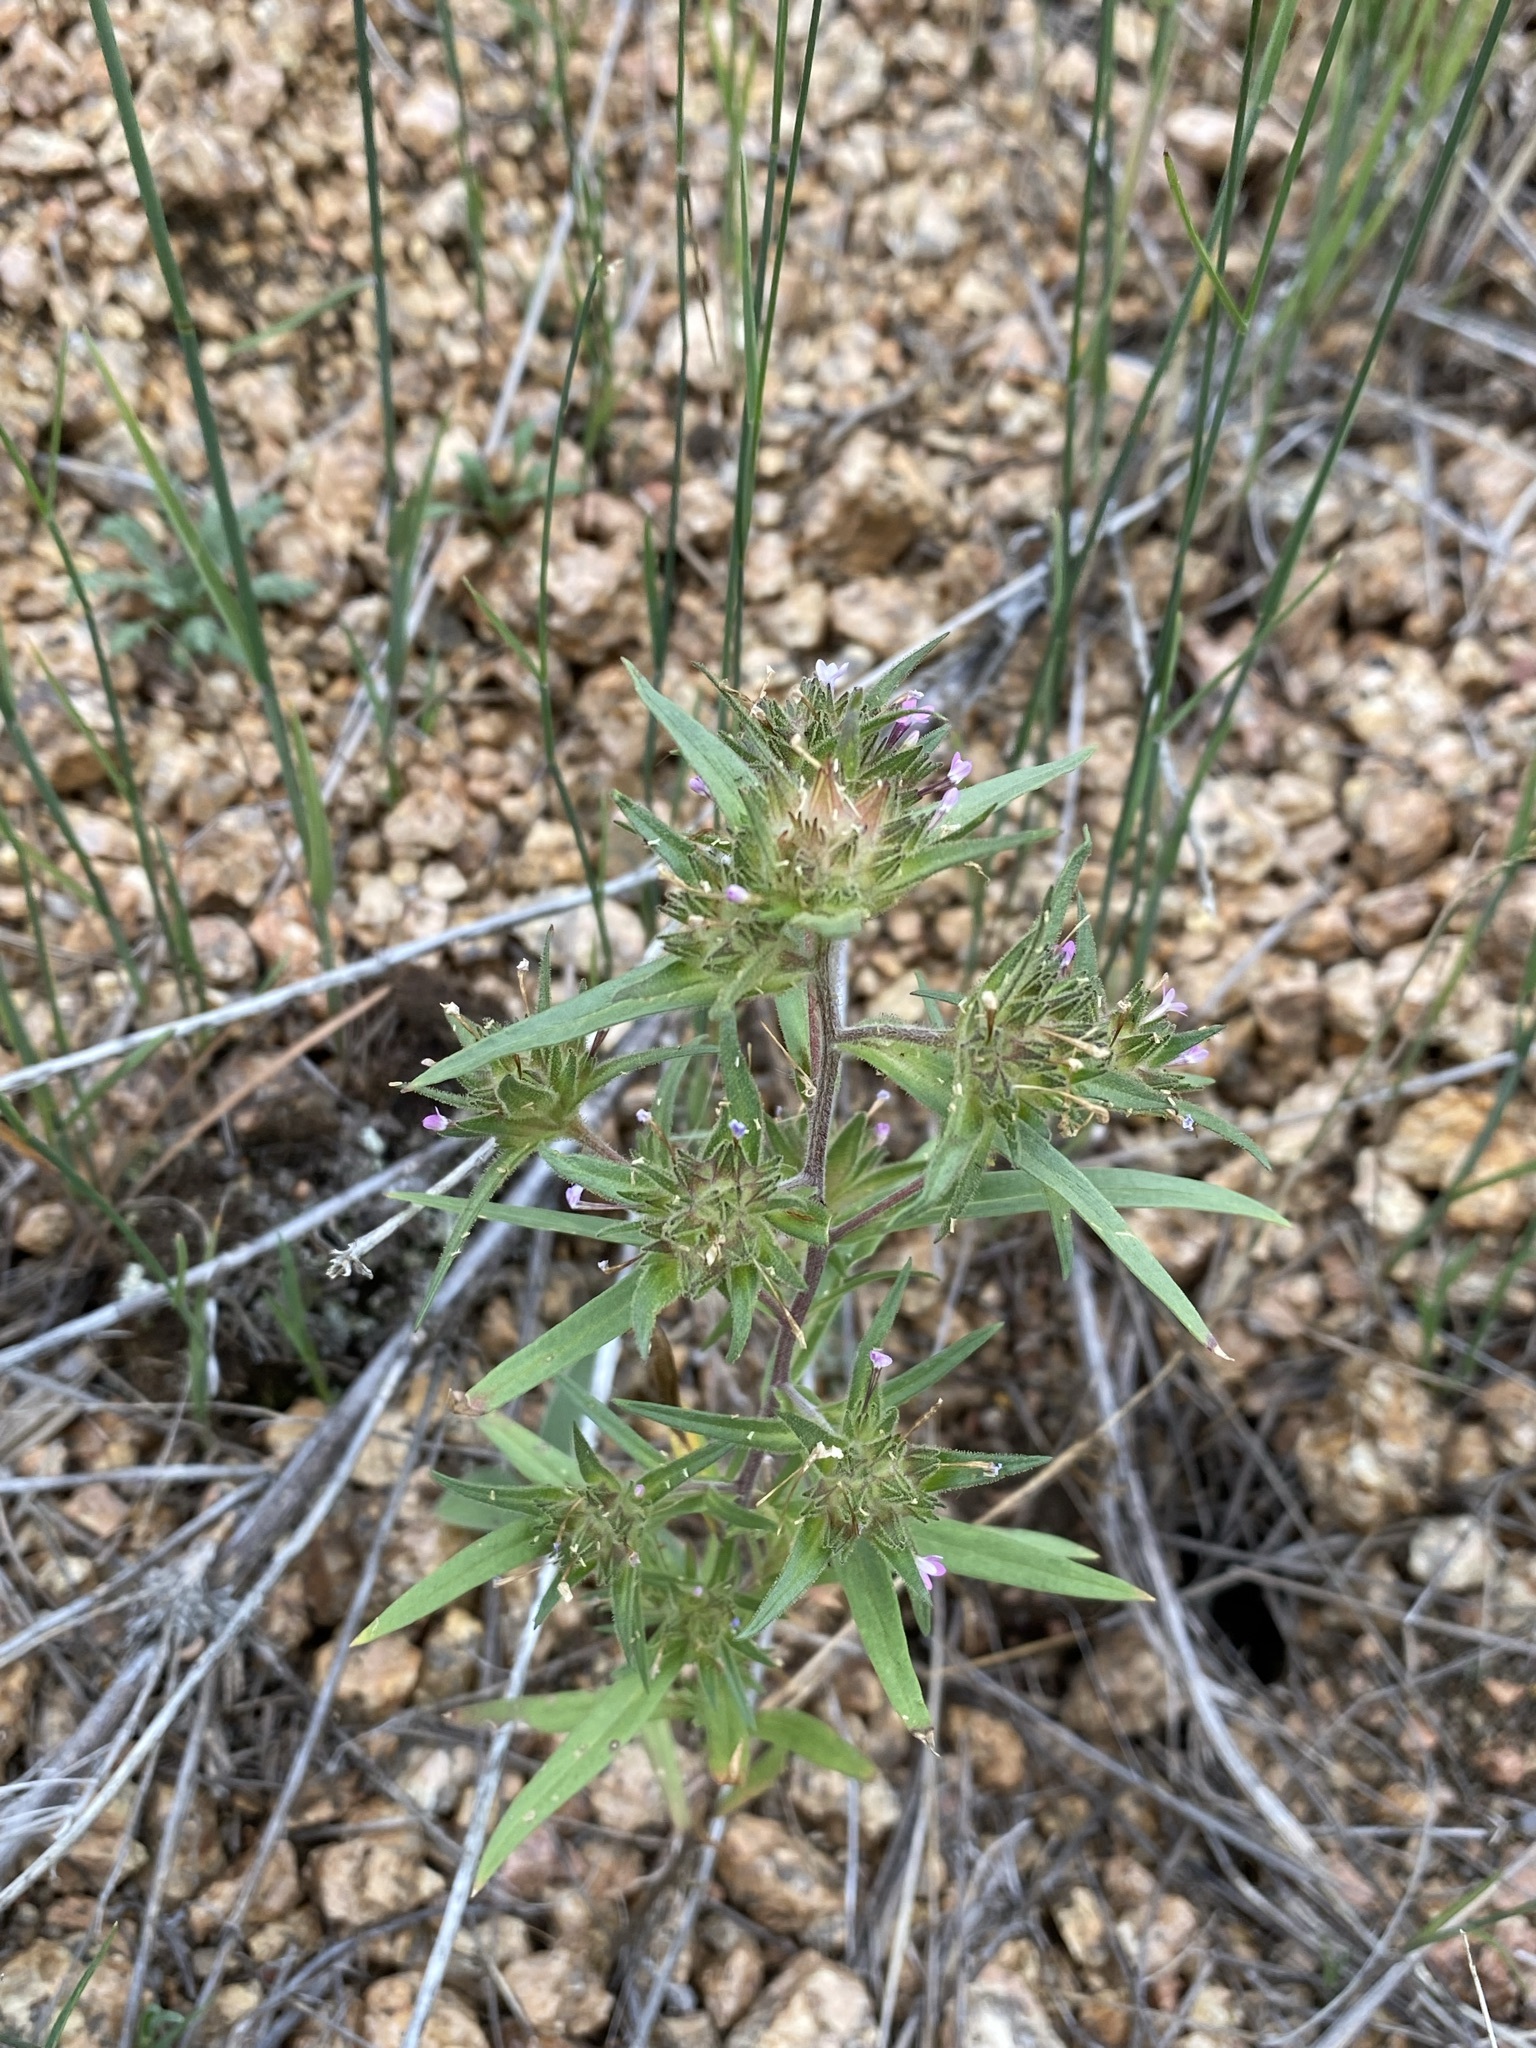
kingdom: Plantae
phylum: Tracheophyta
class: Magnoliopsida
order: Ericales
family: Polemoniaceae
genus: Collomia
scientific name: Collomia linearis
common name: Tiny trumpet
